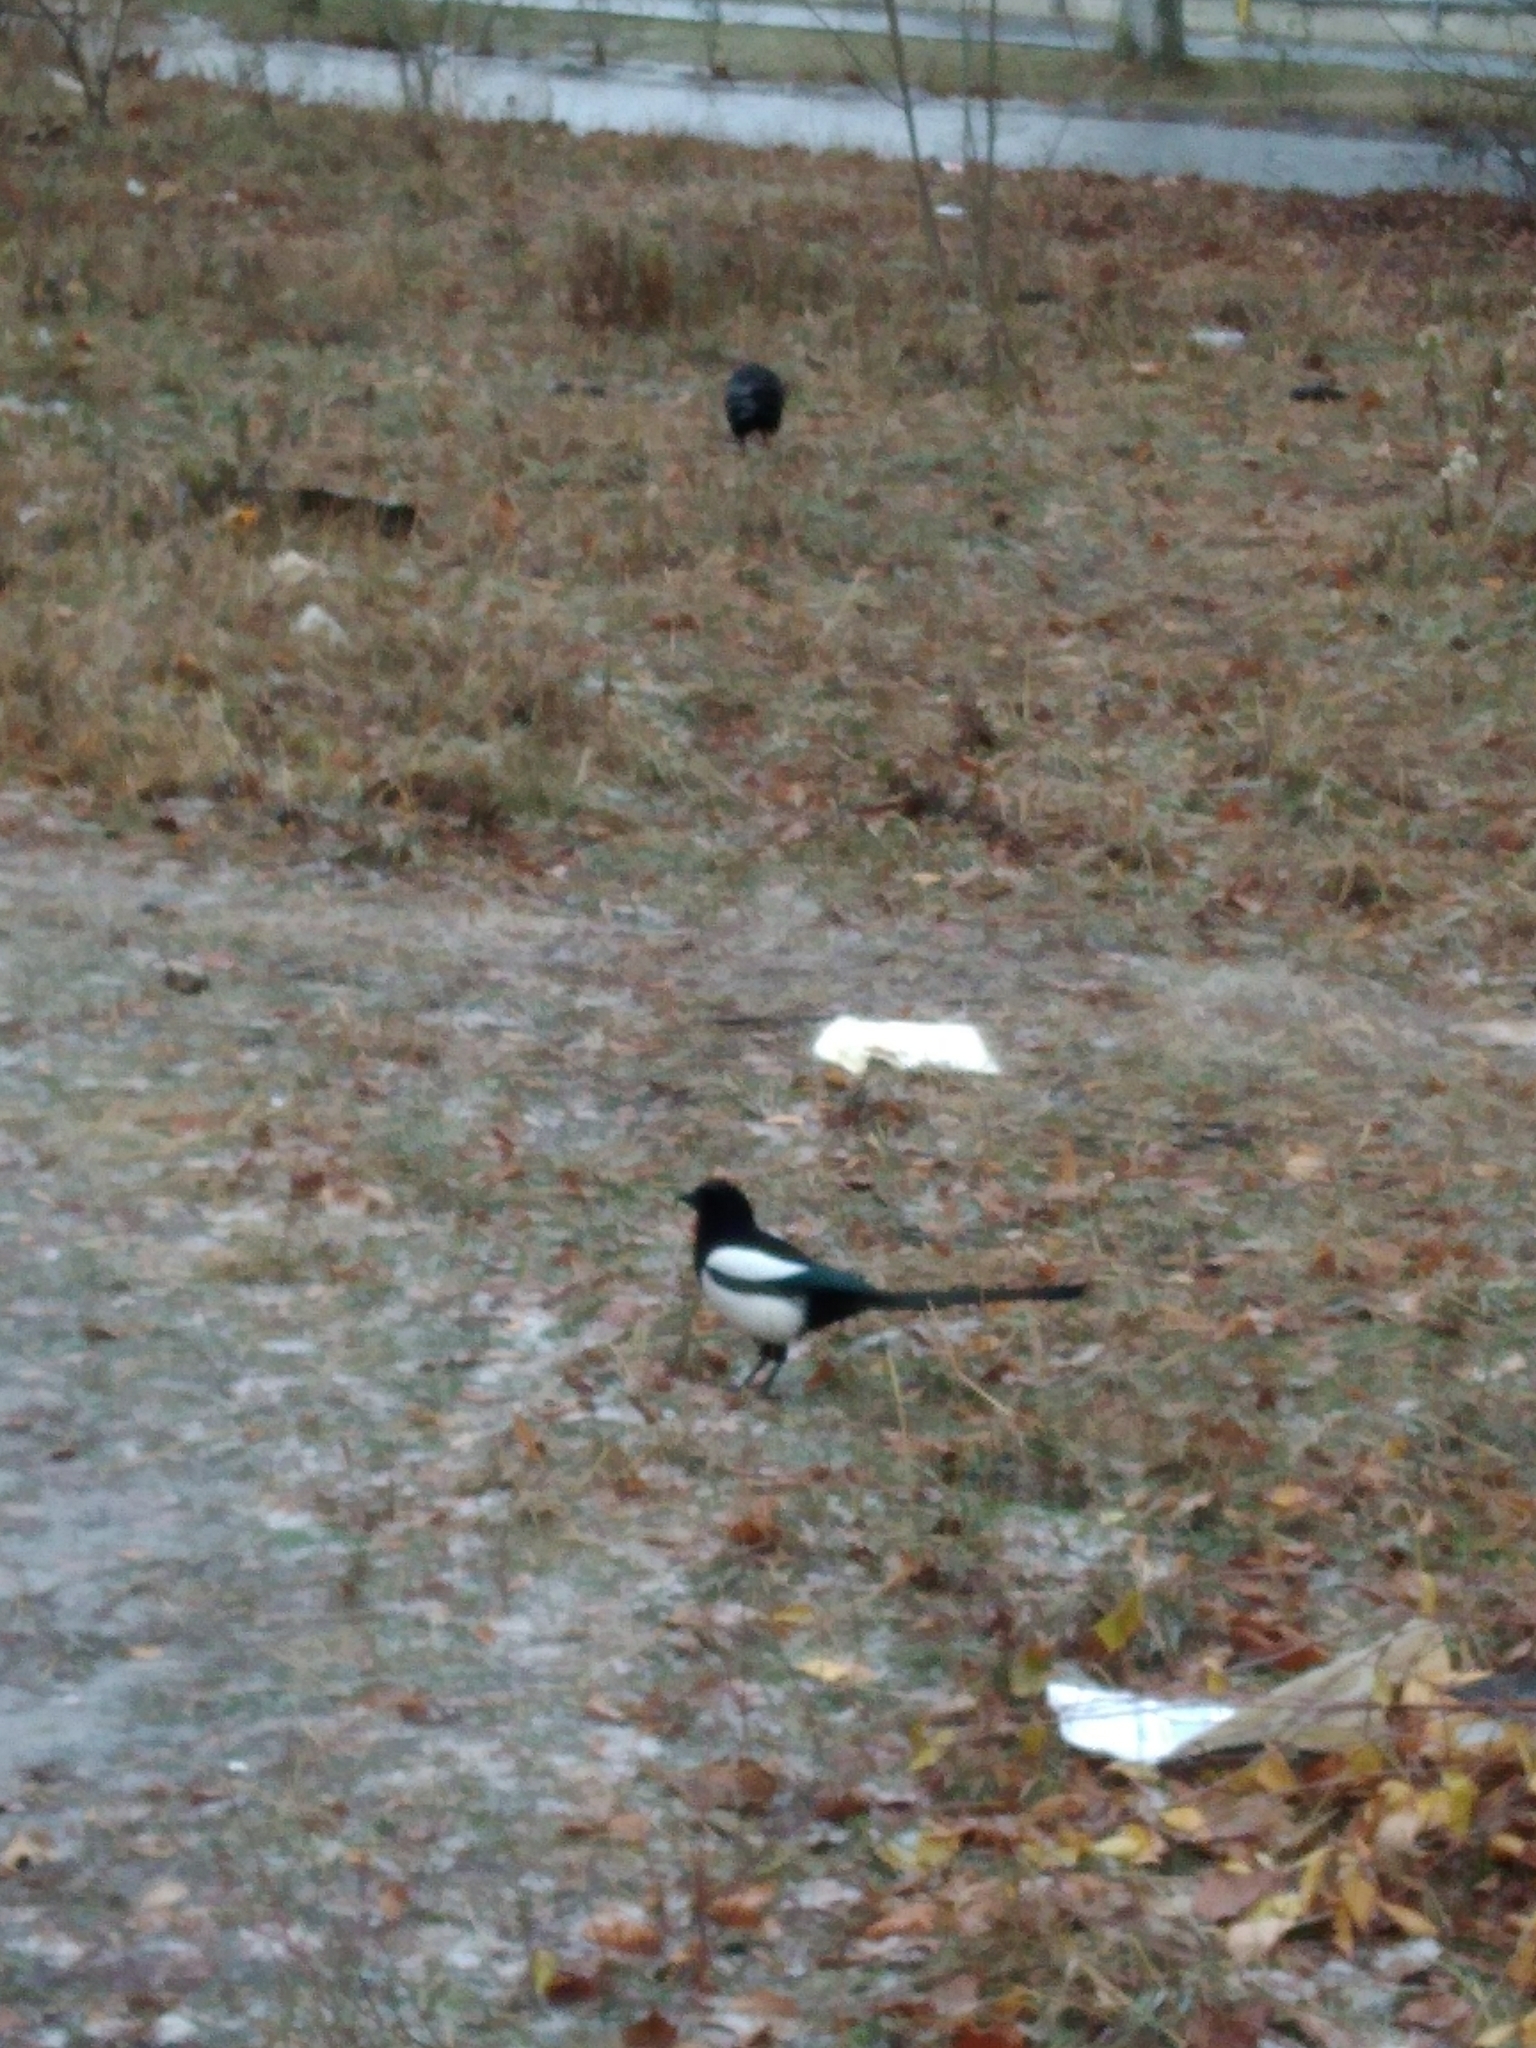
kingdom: Animalia
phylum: Chordata
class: Aves
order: Passeriformes
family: Corvidae
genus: Pica
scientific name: Pica pica
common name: Eurasian magpie
